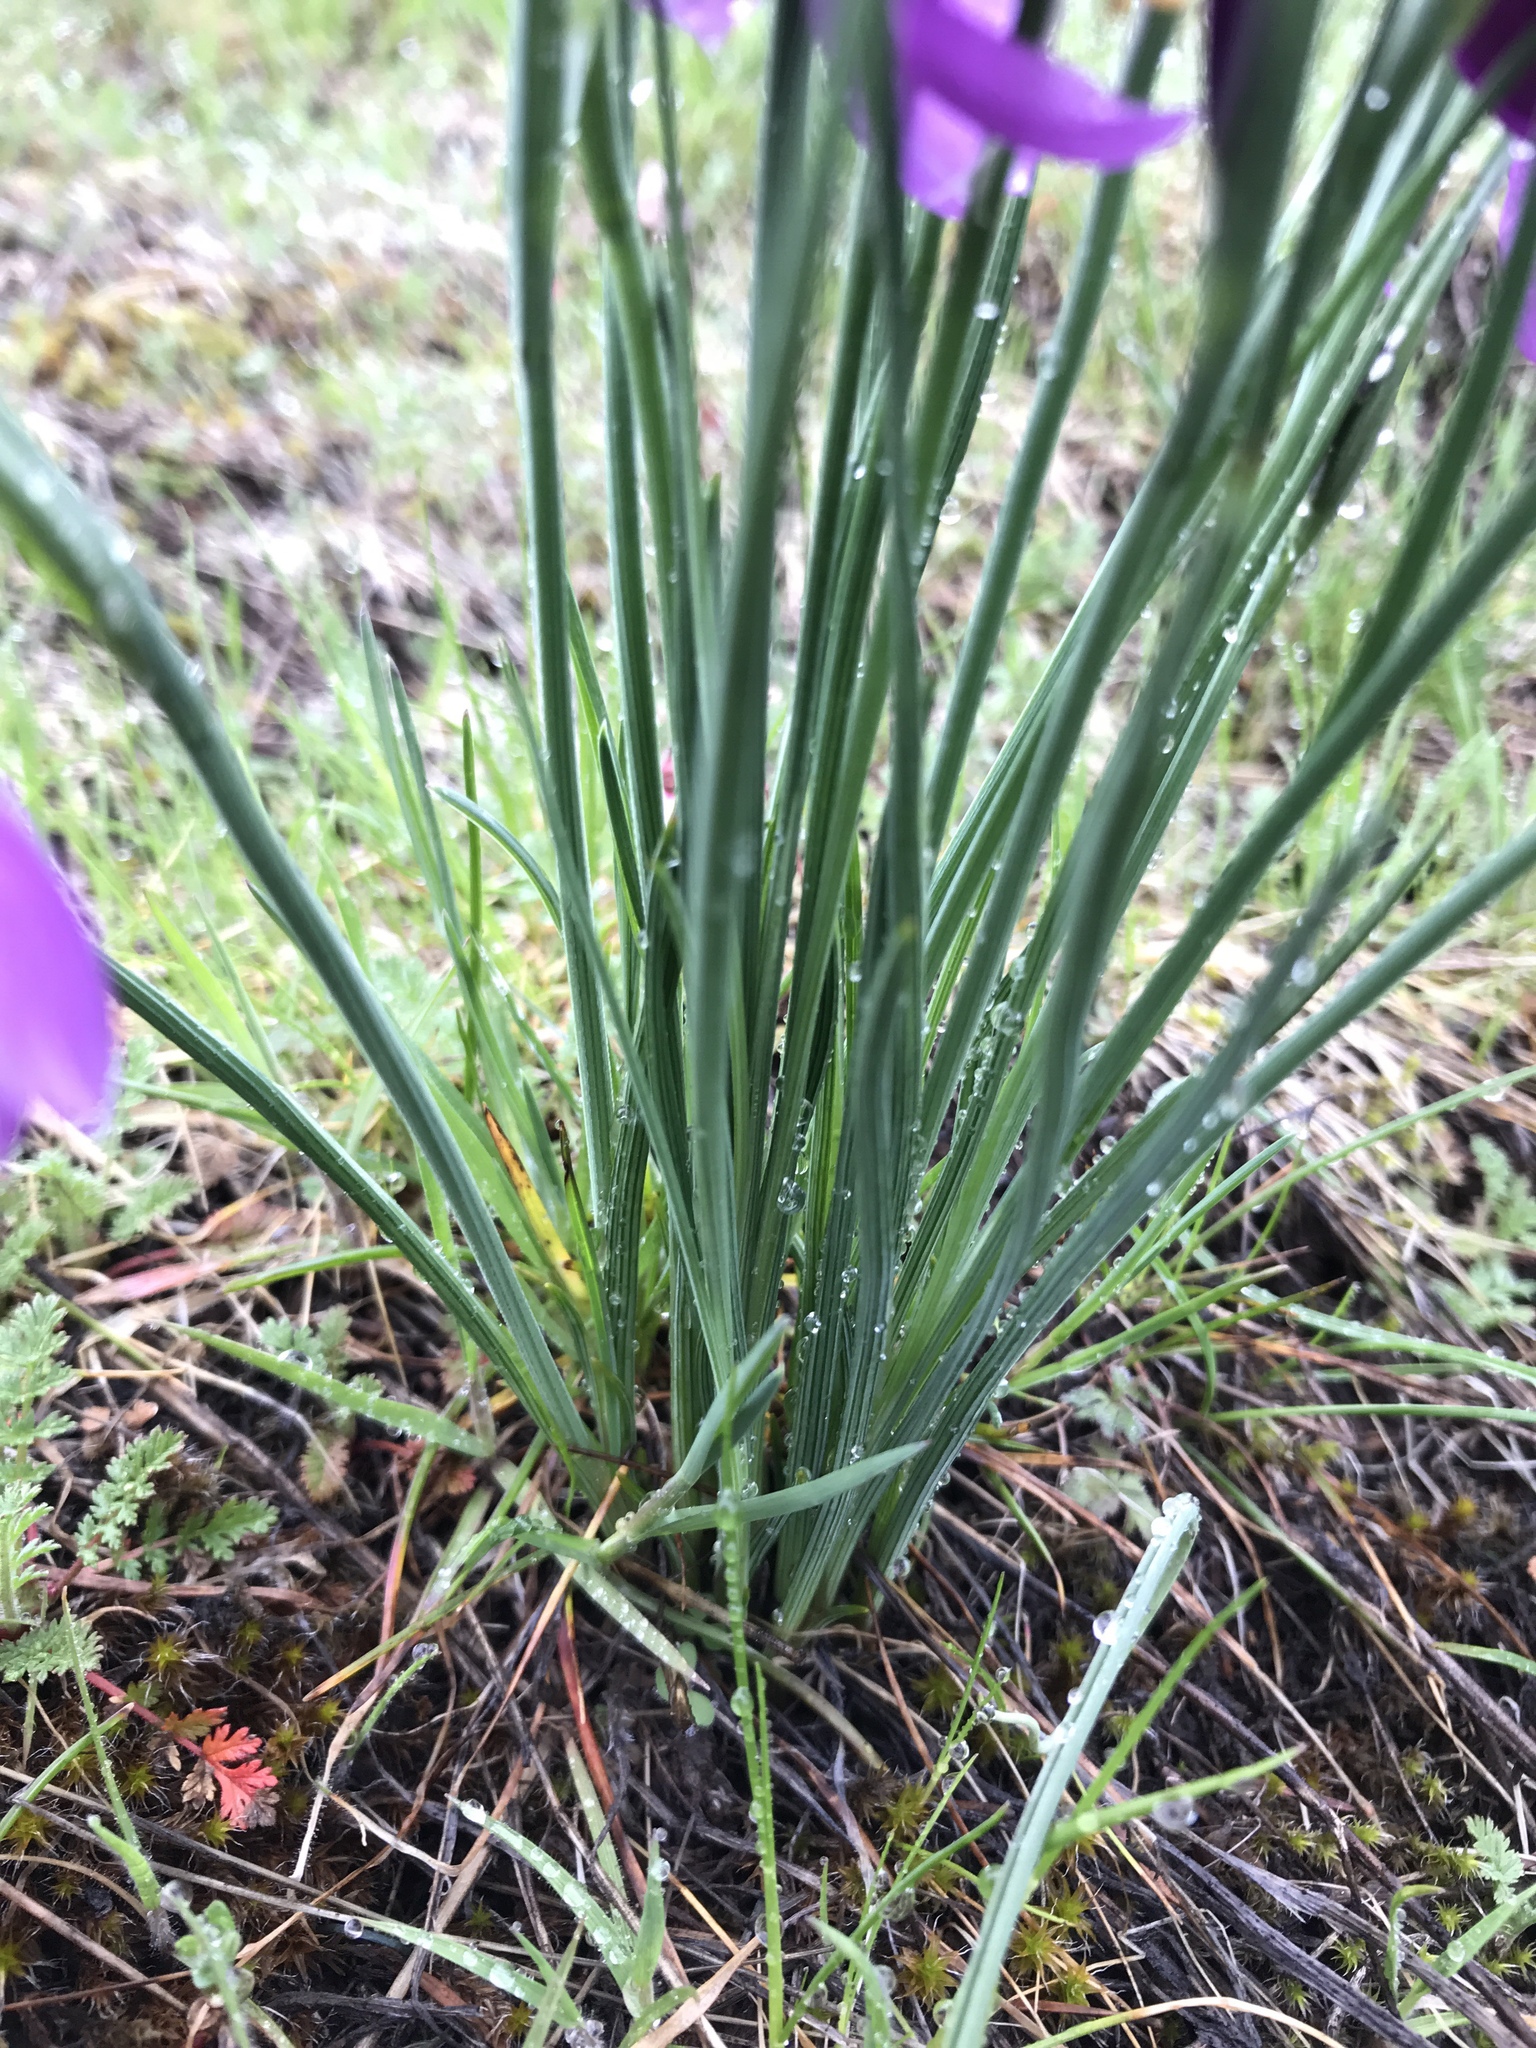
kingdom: Plantae
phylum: Tracheophyta
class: Liliopsida
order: Asparagales
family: Iridaceae
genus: Olsynium
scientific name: Olsynium douglasii
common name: Douglas' grasswidow
